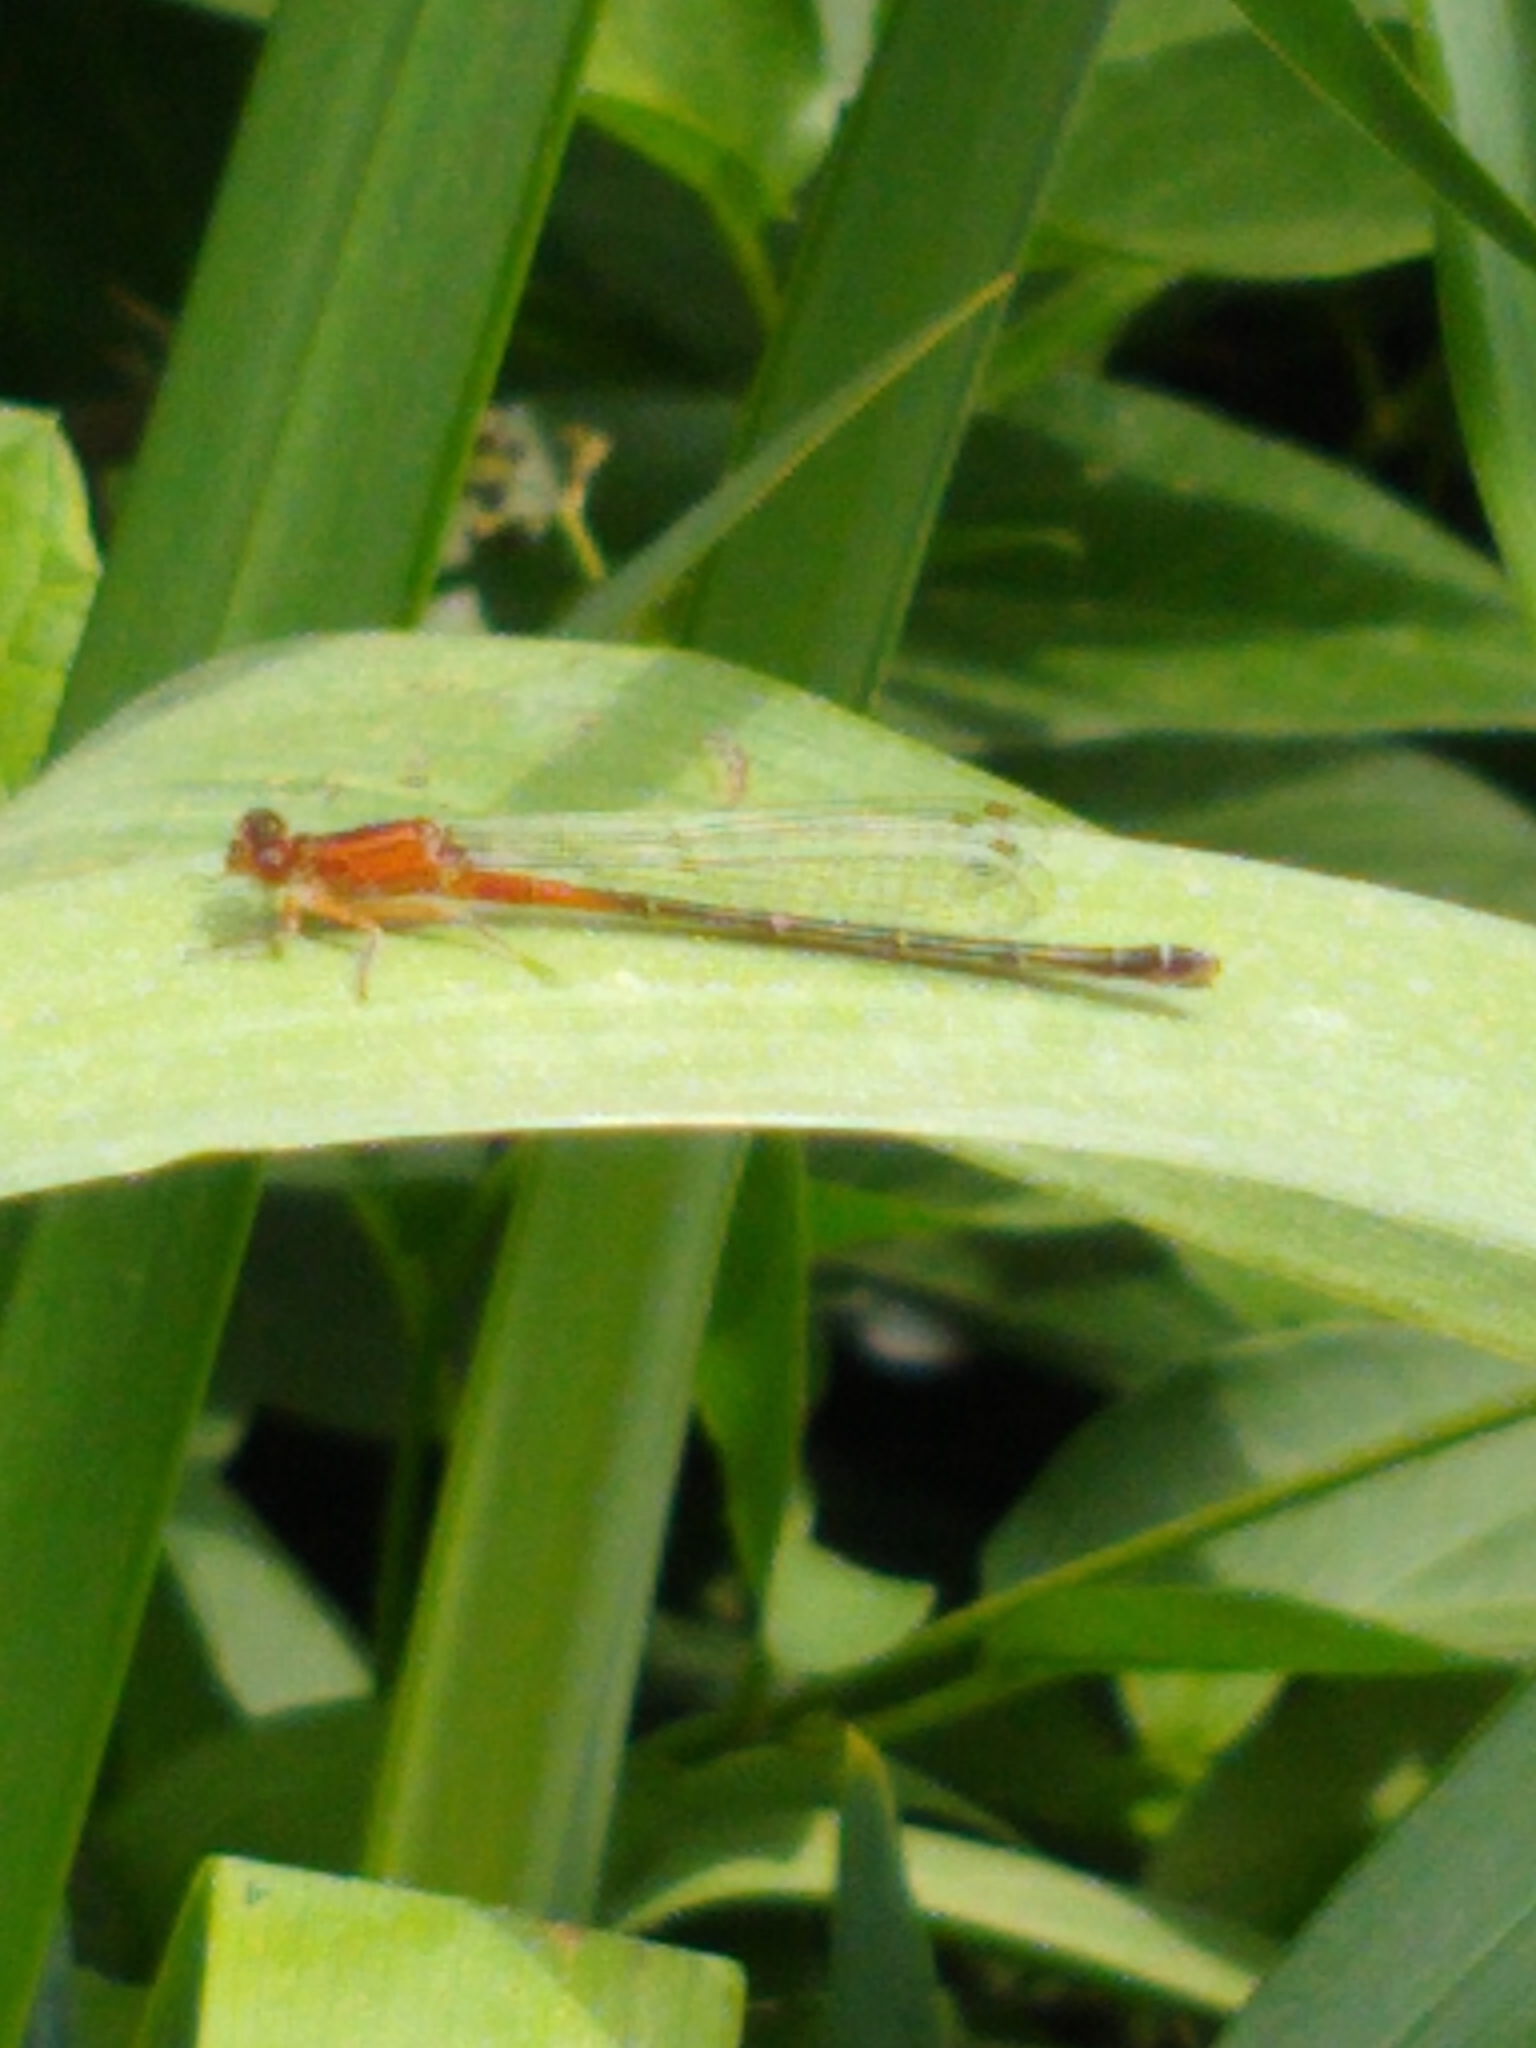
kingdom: Animalia
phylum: Arthropoda
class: Insecta
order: Odonata
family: Coenagrionidae
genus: Ischnura
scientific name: Ischnura verticalis
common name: Eastern forktail
